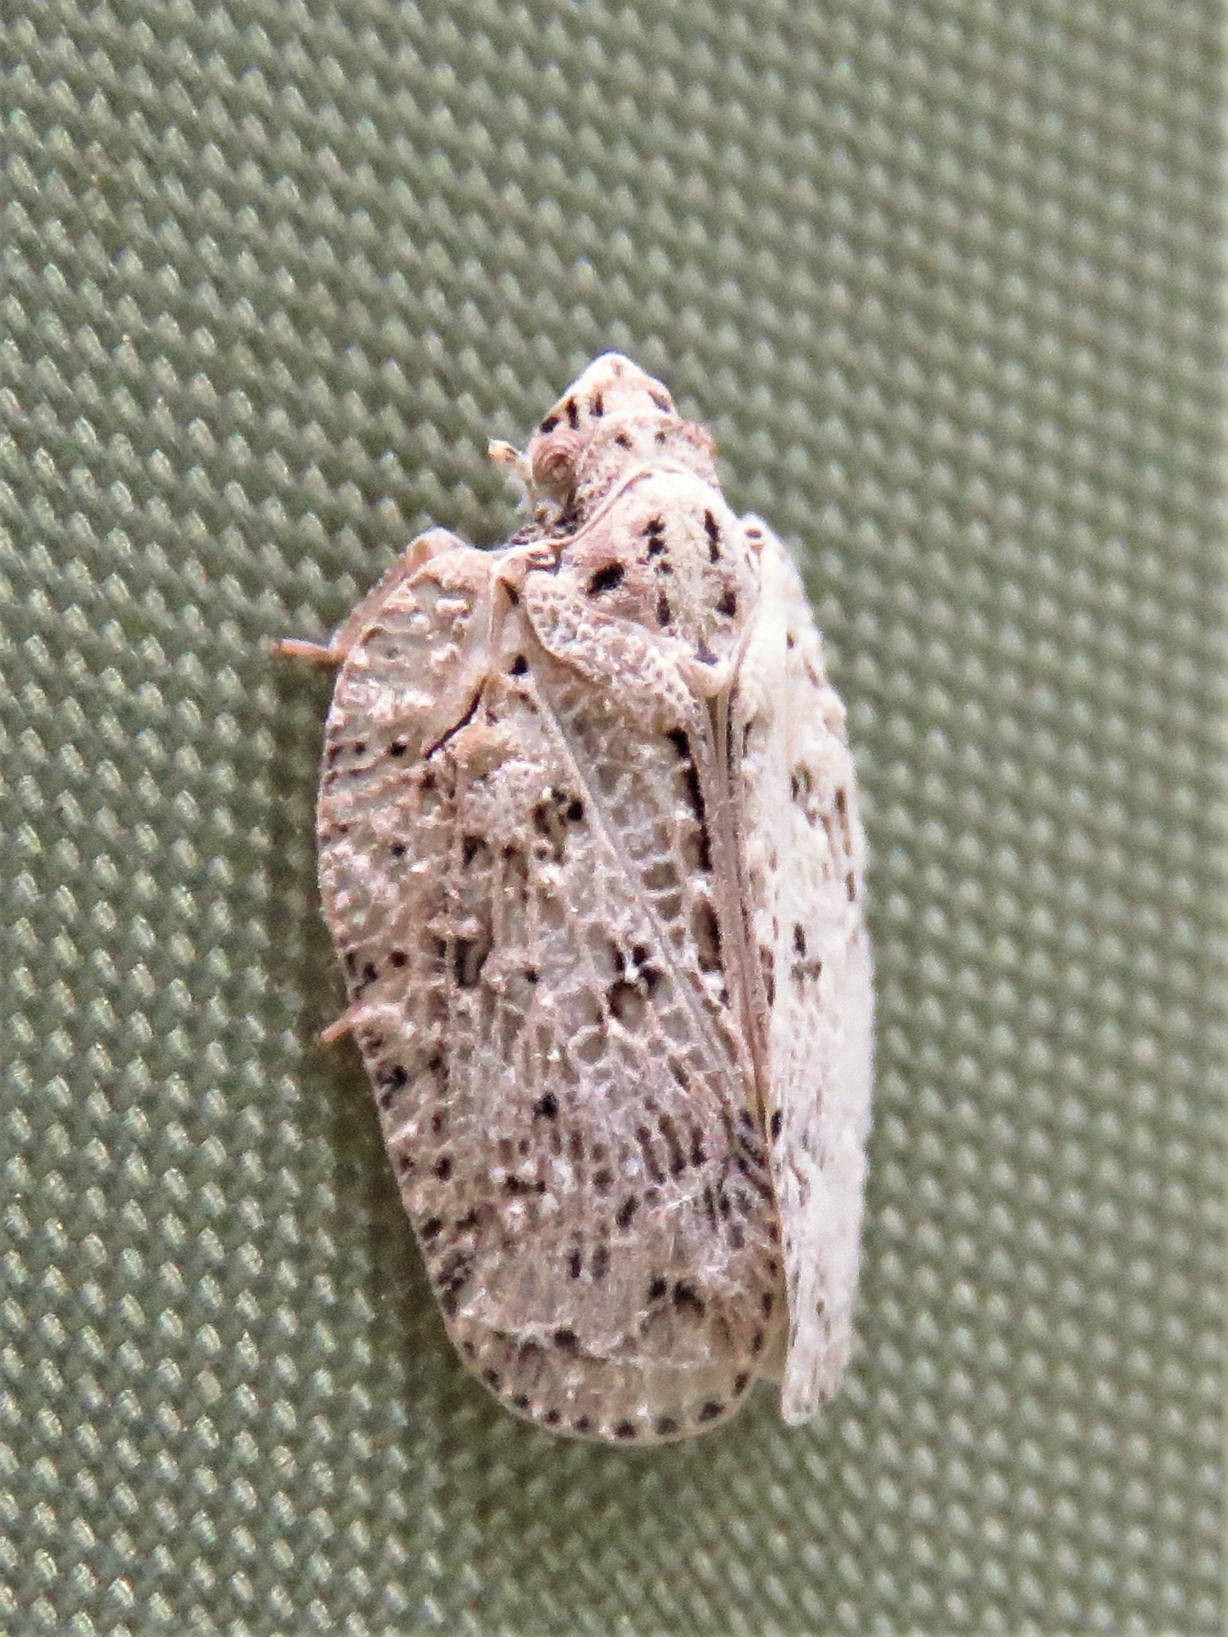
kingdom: Animalia
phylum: Arthropoda
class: Insecta
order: Hemiptera
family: Flatidae
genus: Flatoidinus
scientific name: Flatoidinus punctatus
